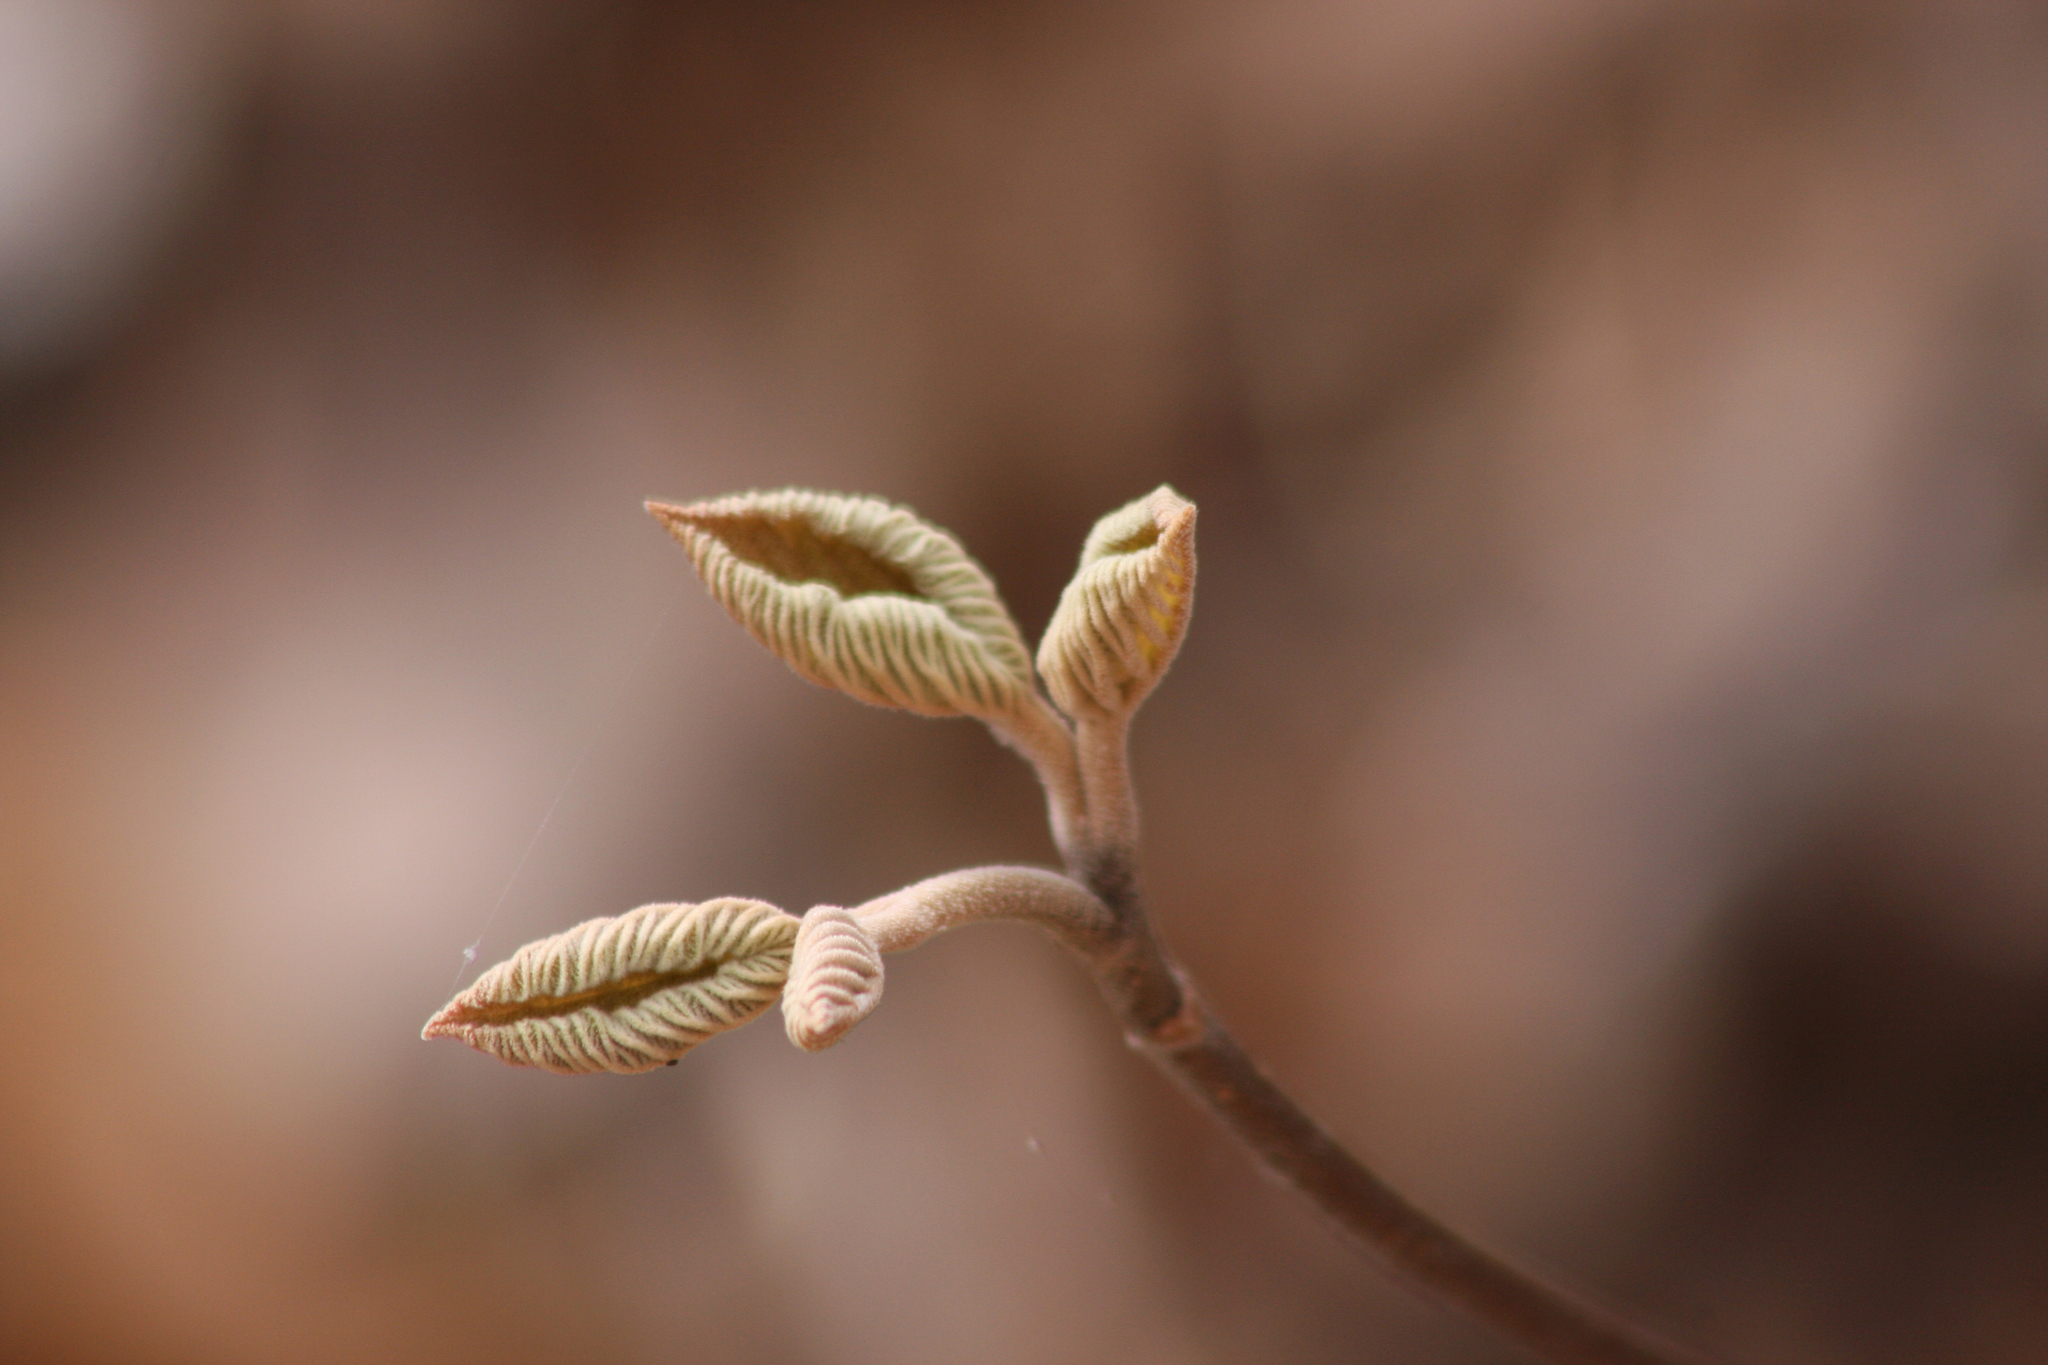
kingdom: Plantae
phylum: Tracheophyta
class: Magnoliopsida
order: Dipsacales
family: Viburnaceae
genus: Viburnum
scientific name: Viburnum lantanoides
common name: Hobblebush
